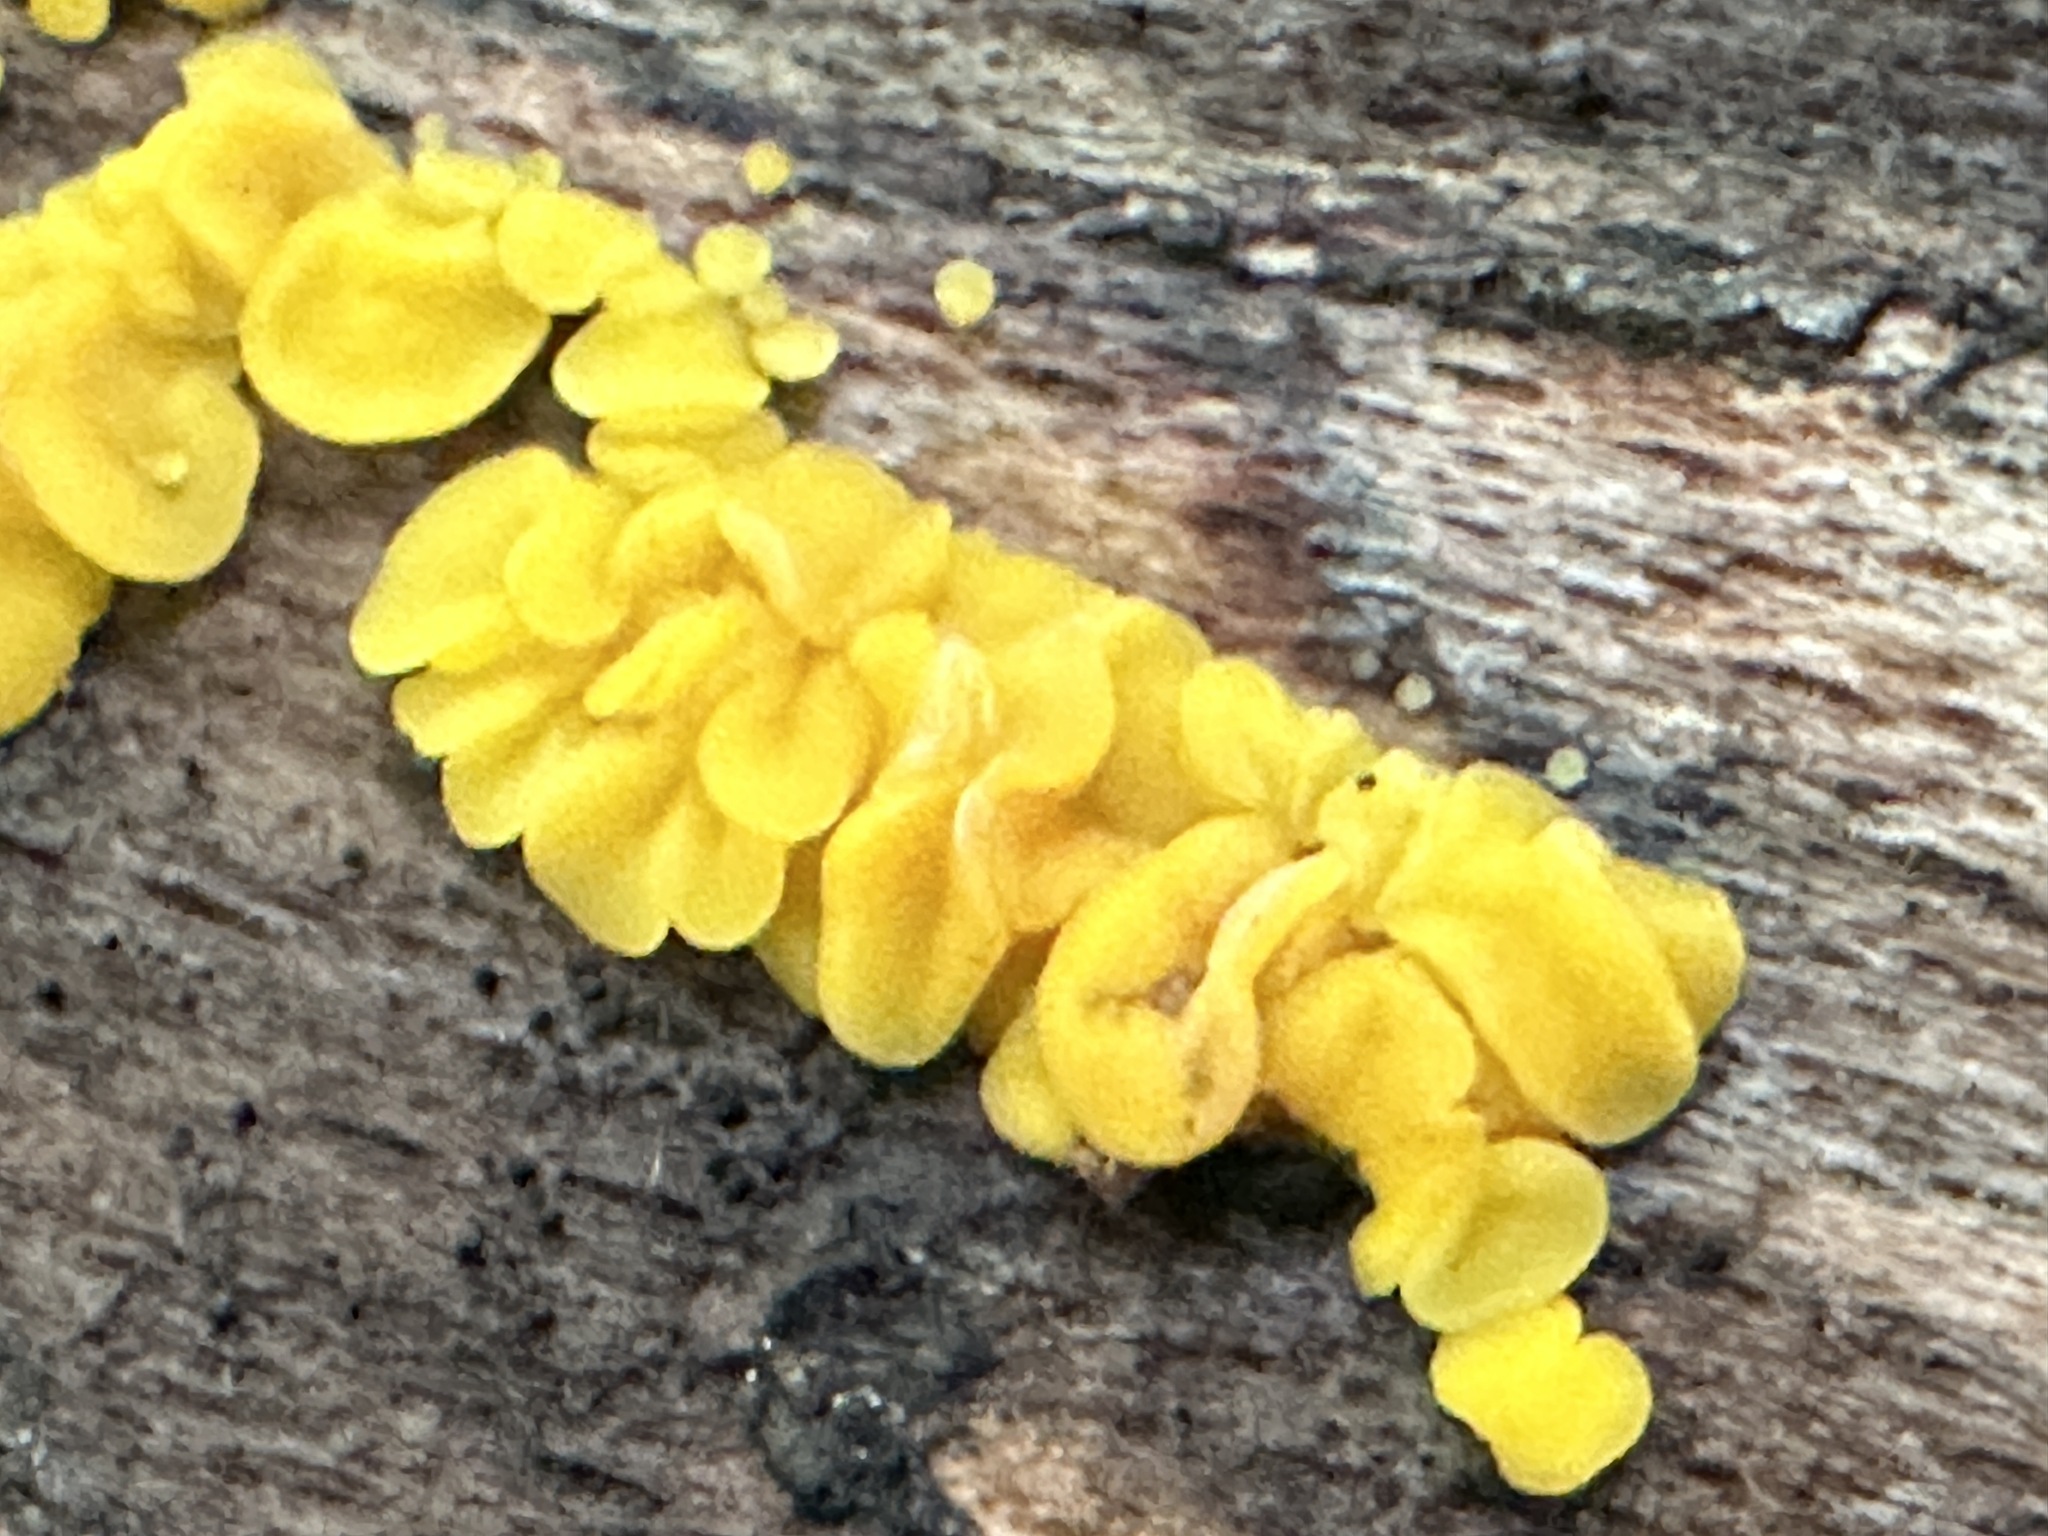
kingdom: Fungi
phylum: Ascomycota
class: Leotiomycetes
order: Helotiales
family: Pezizellaceae
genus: Calycina
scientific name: Calycina citrina
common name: Yellow fairy cups
